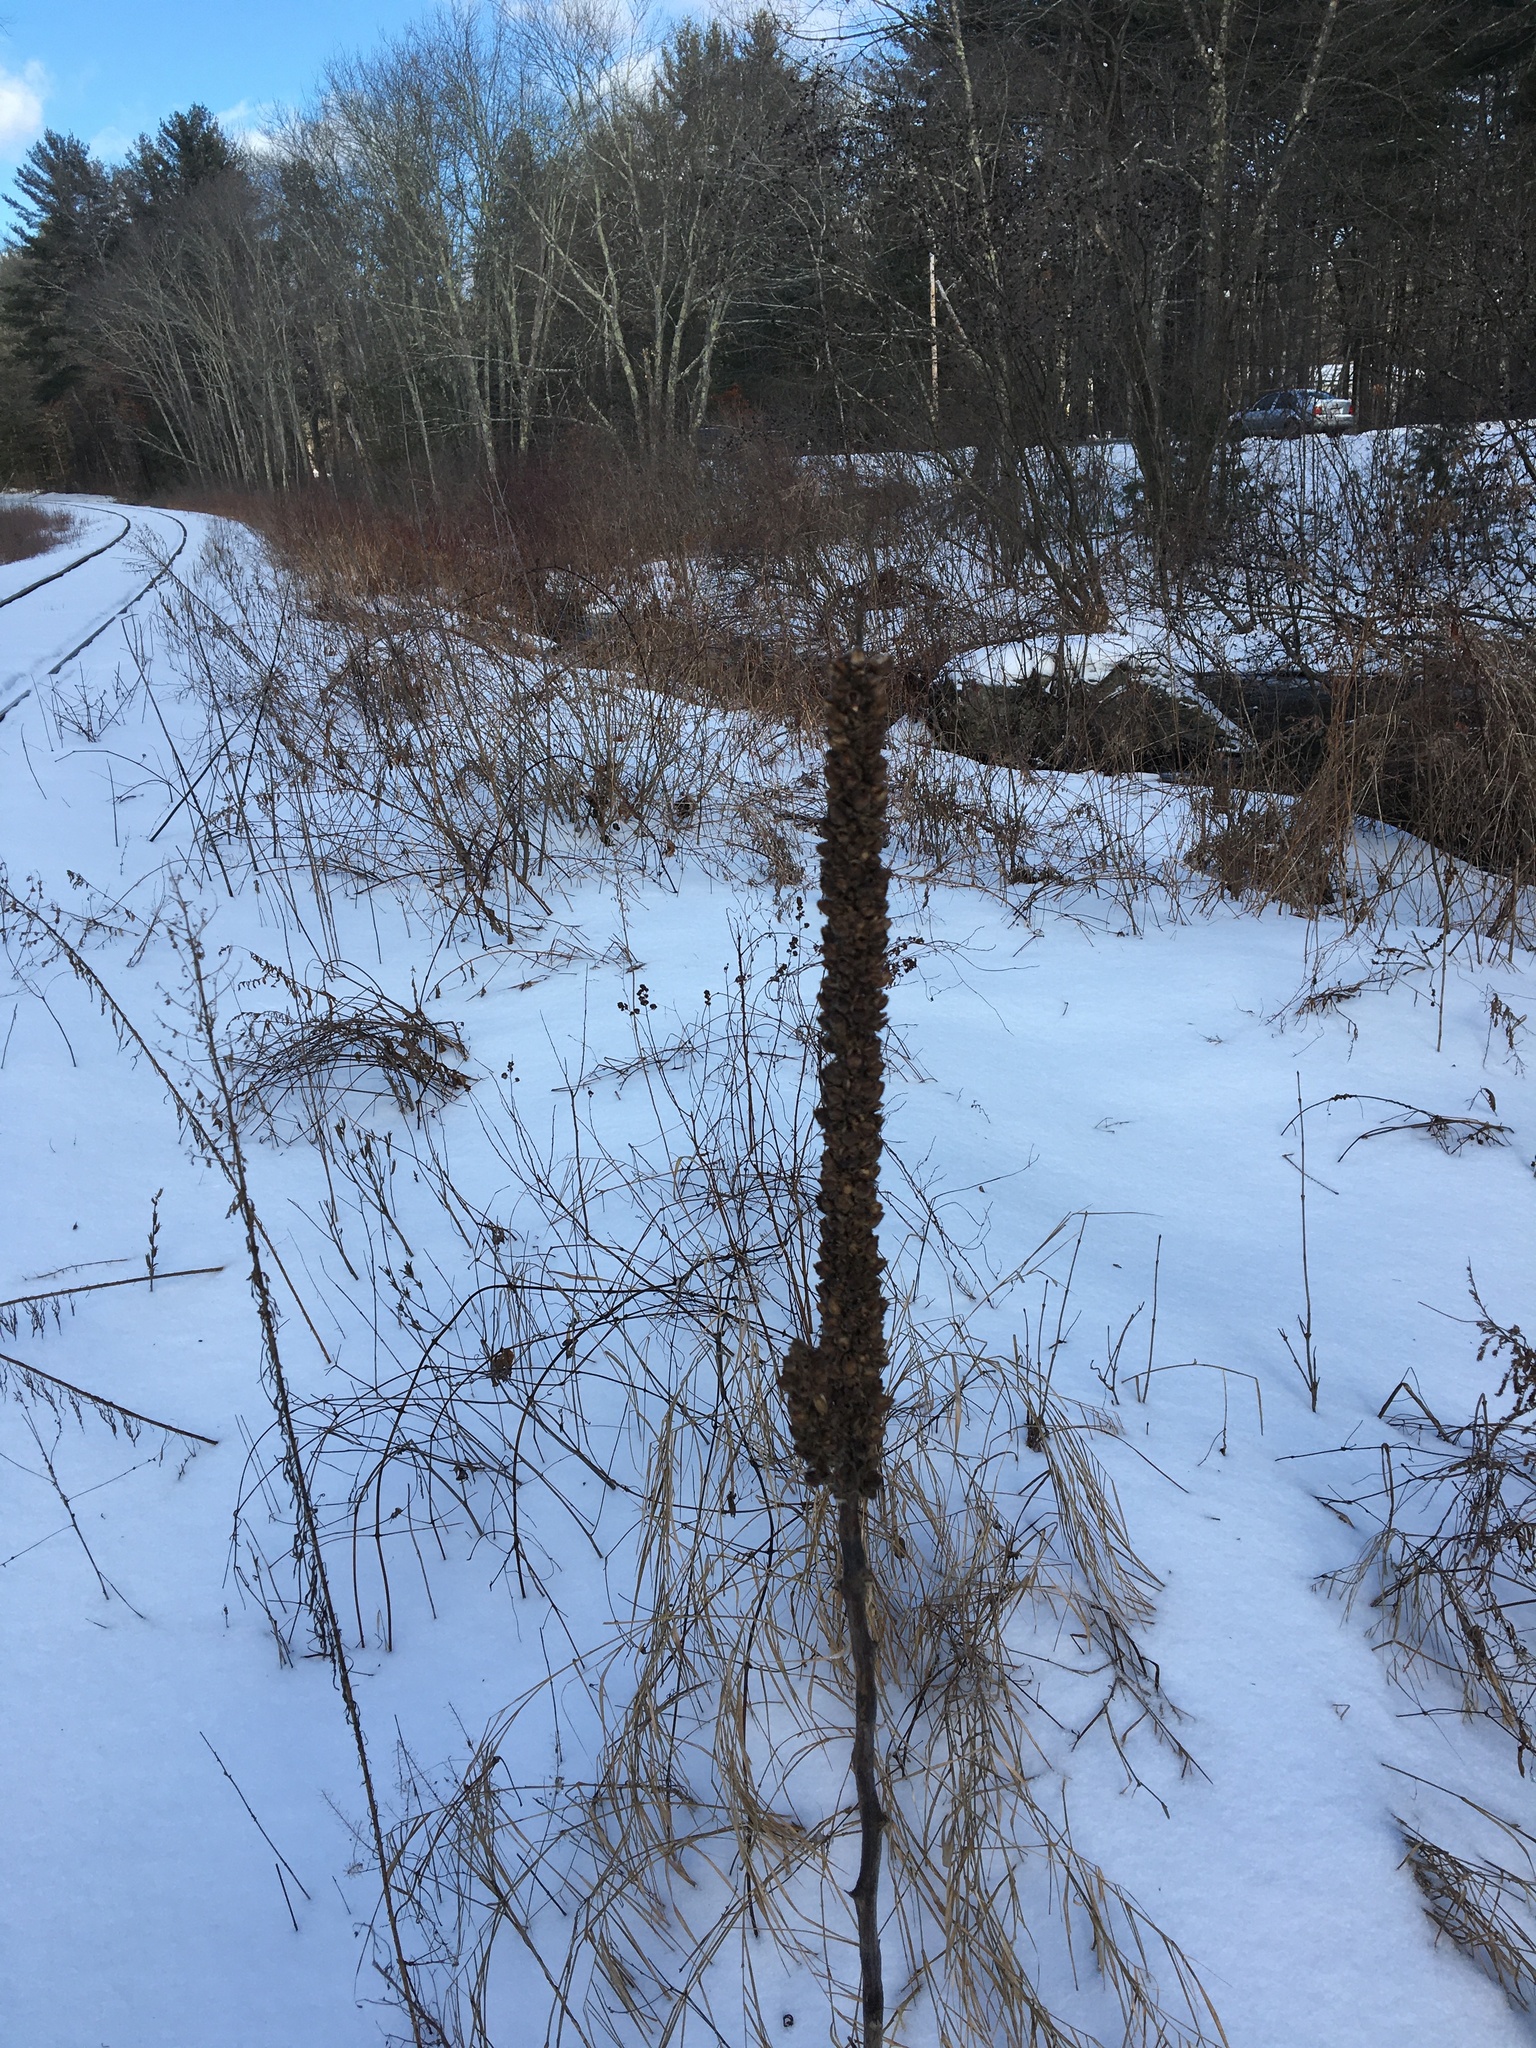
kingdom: Plantae
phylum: Tracheophyta
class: Magnoliopsida
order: Lamiales
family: Scrophulariaceae
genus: Verbascum
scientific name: Verbascum thapsus
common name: Common mullein
